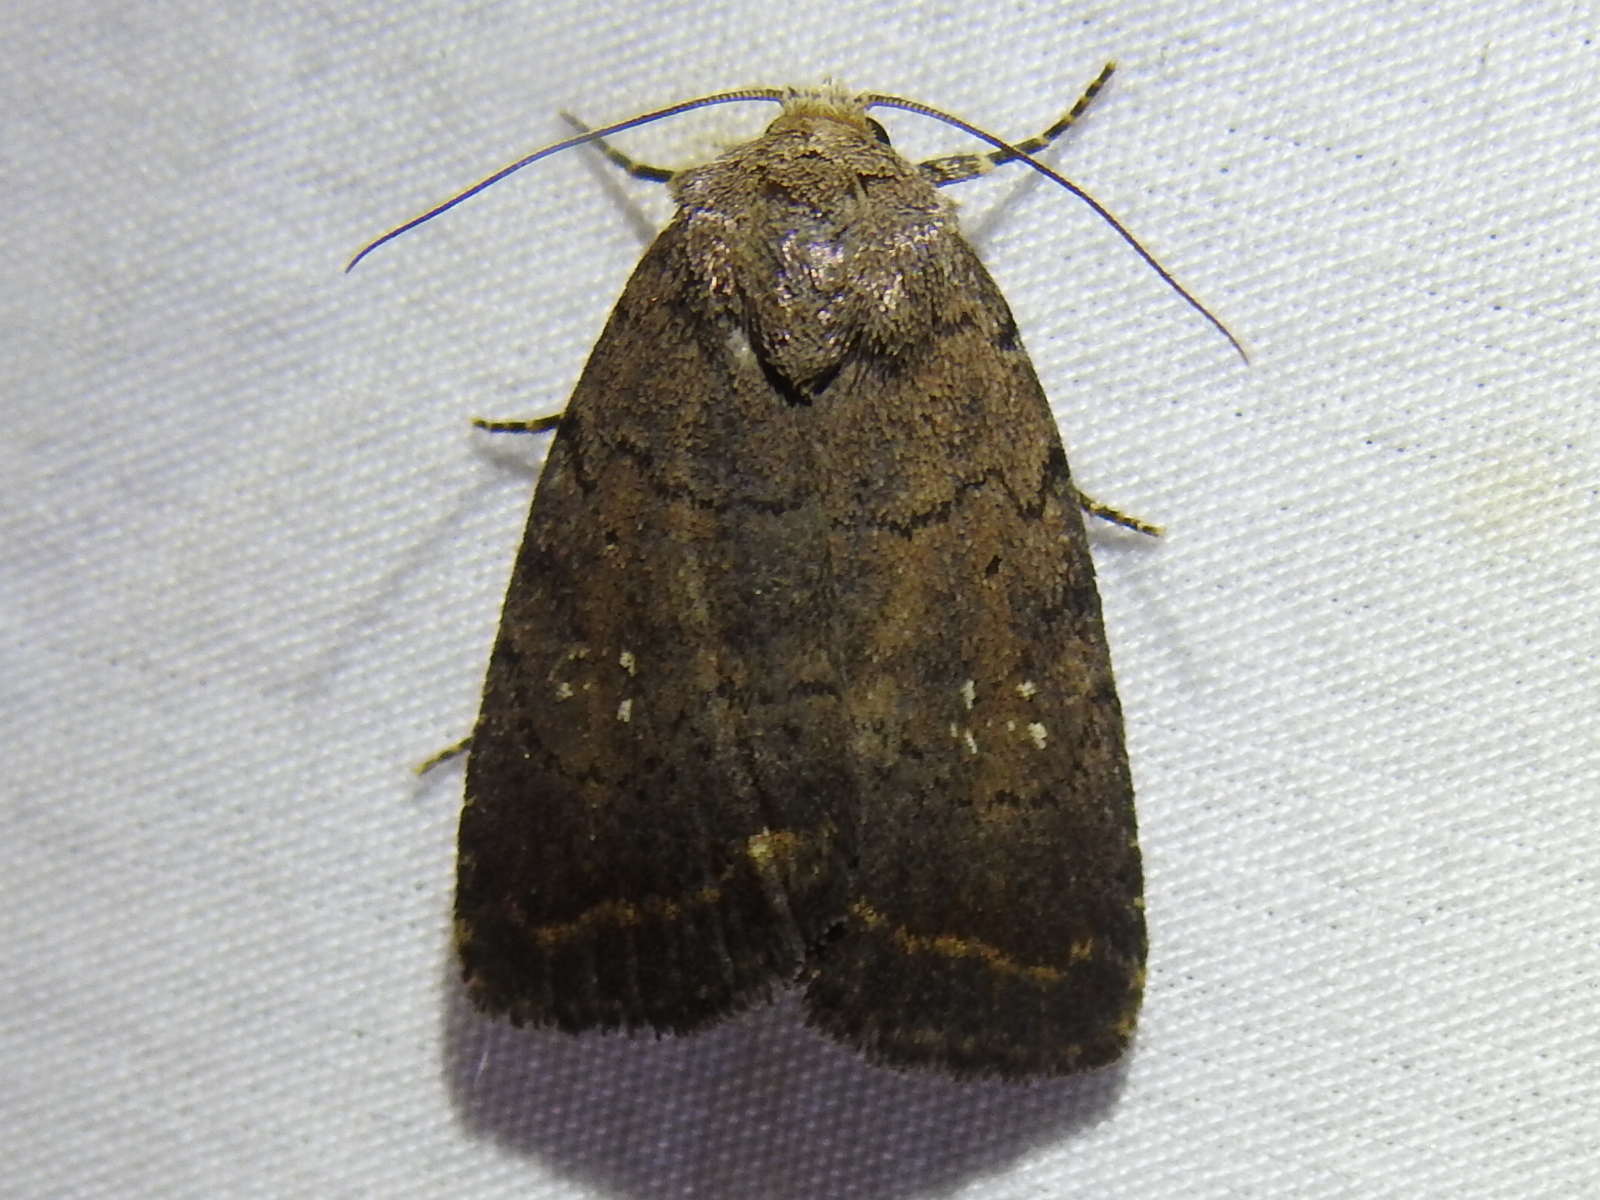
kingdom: Animalia
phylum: Arthropoda
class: Insecta
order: Lepidoptera
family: Noctuidae
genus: Athetis
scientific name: Athetis tarda
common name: Slowpoke moth
